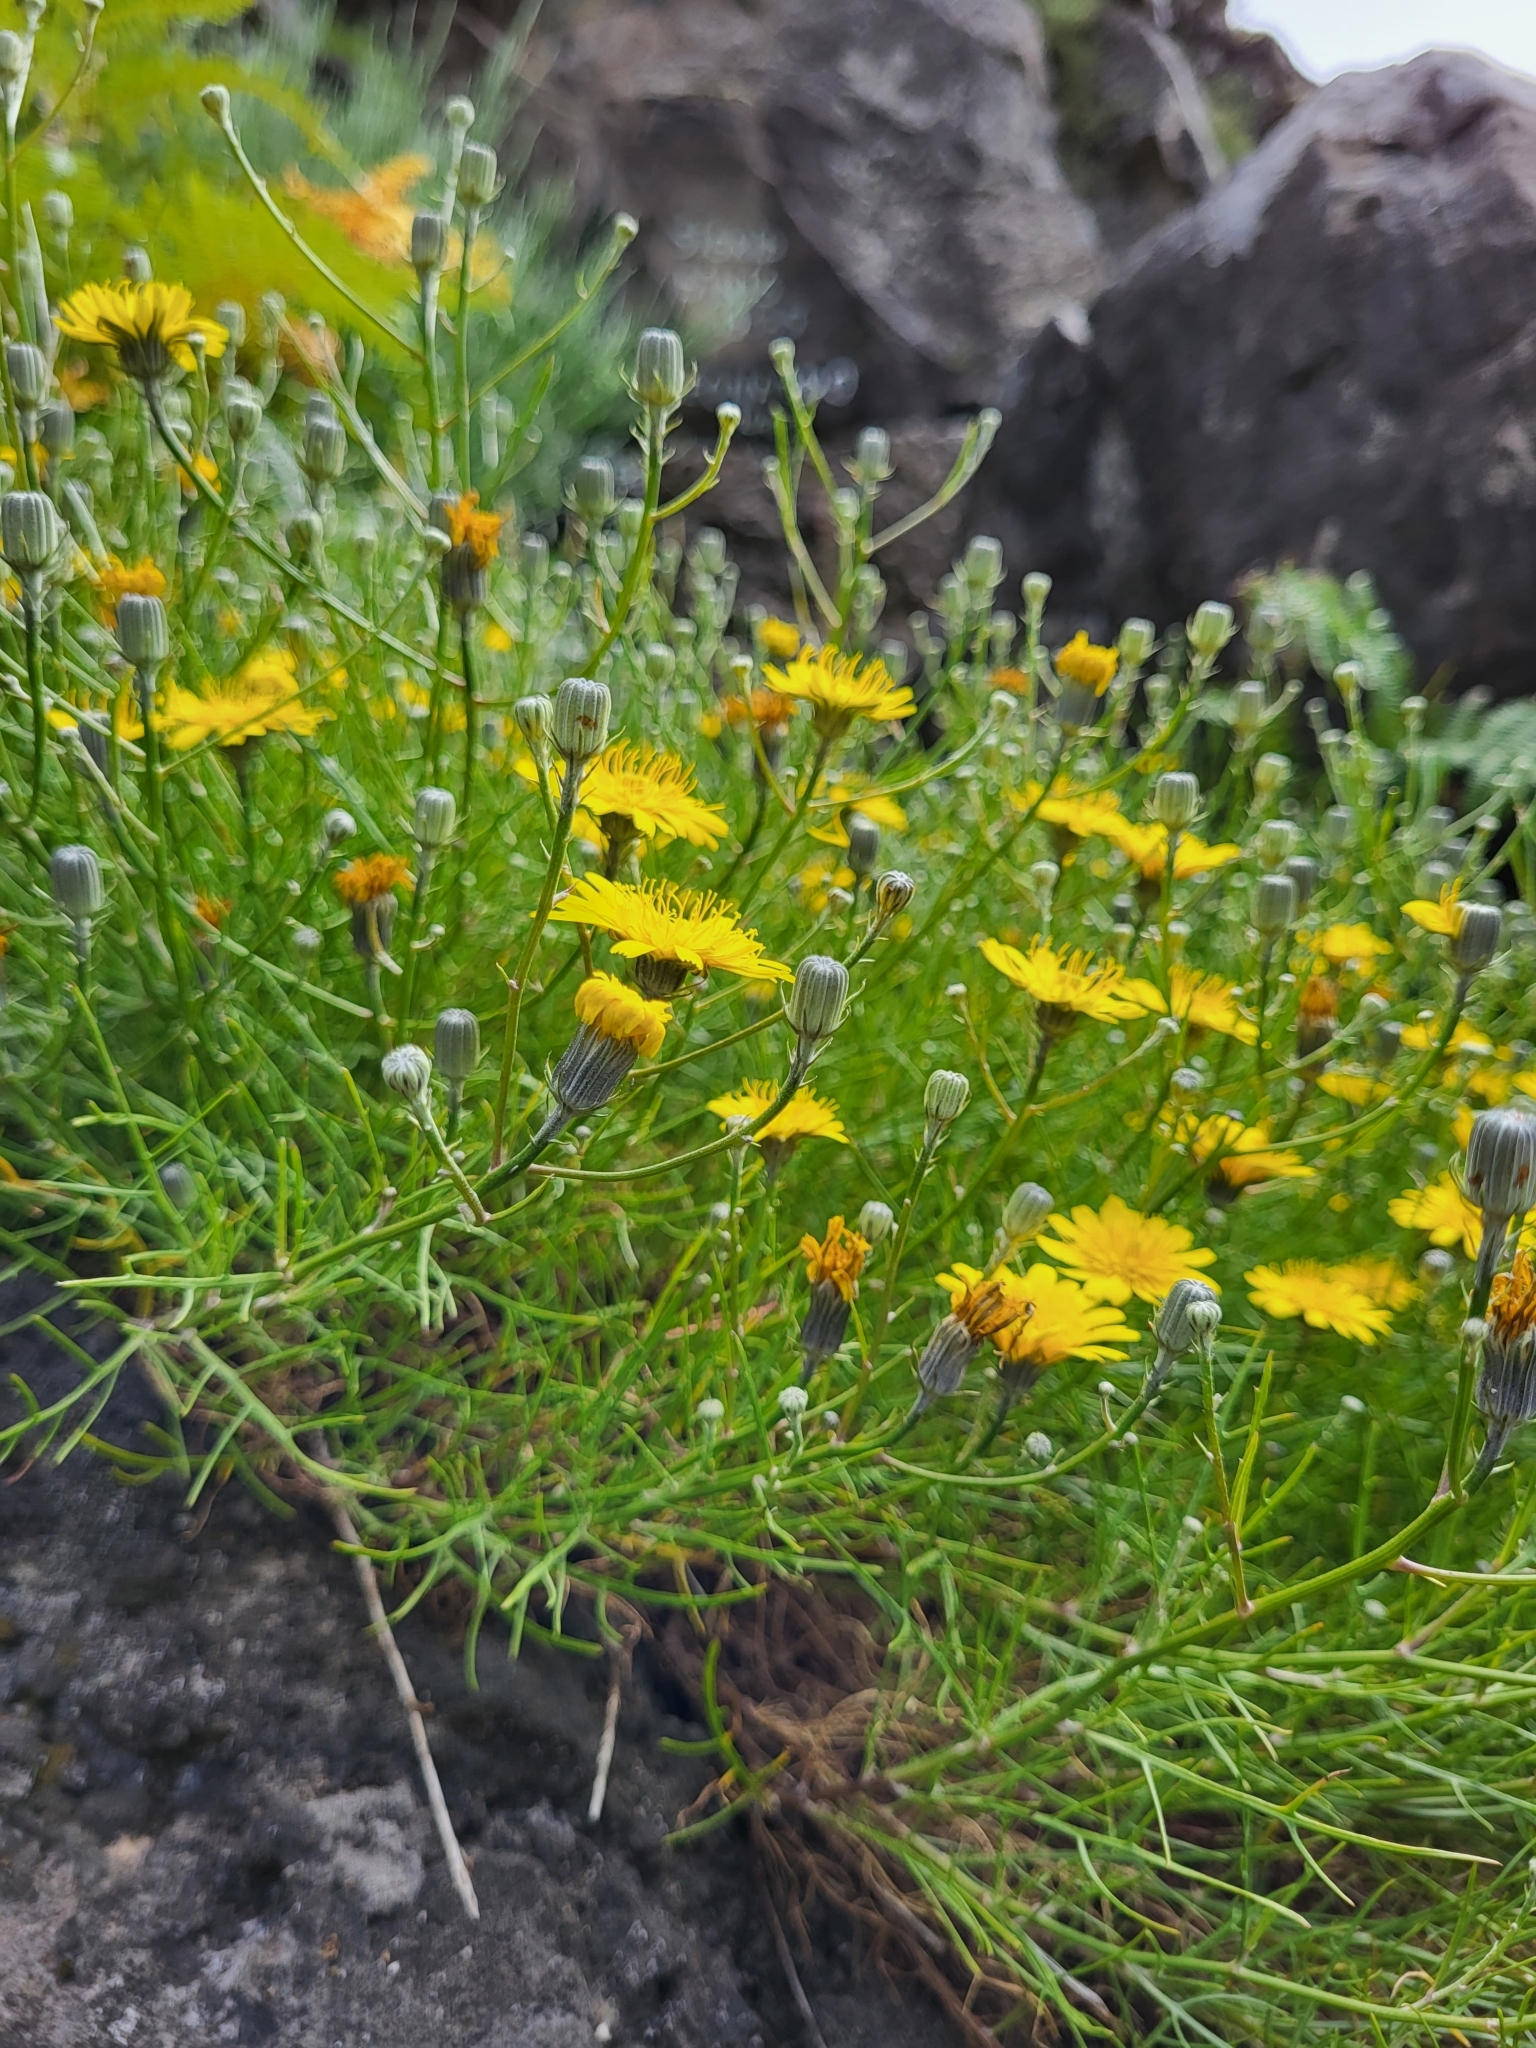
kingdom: Plantae
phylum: Tracheophyta
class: Magnoliopsida
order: Asterales
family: Asteraceae
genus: Tolpis
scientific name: Tolpis succulenta
